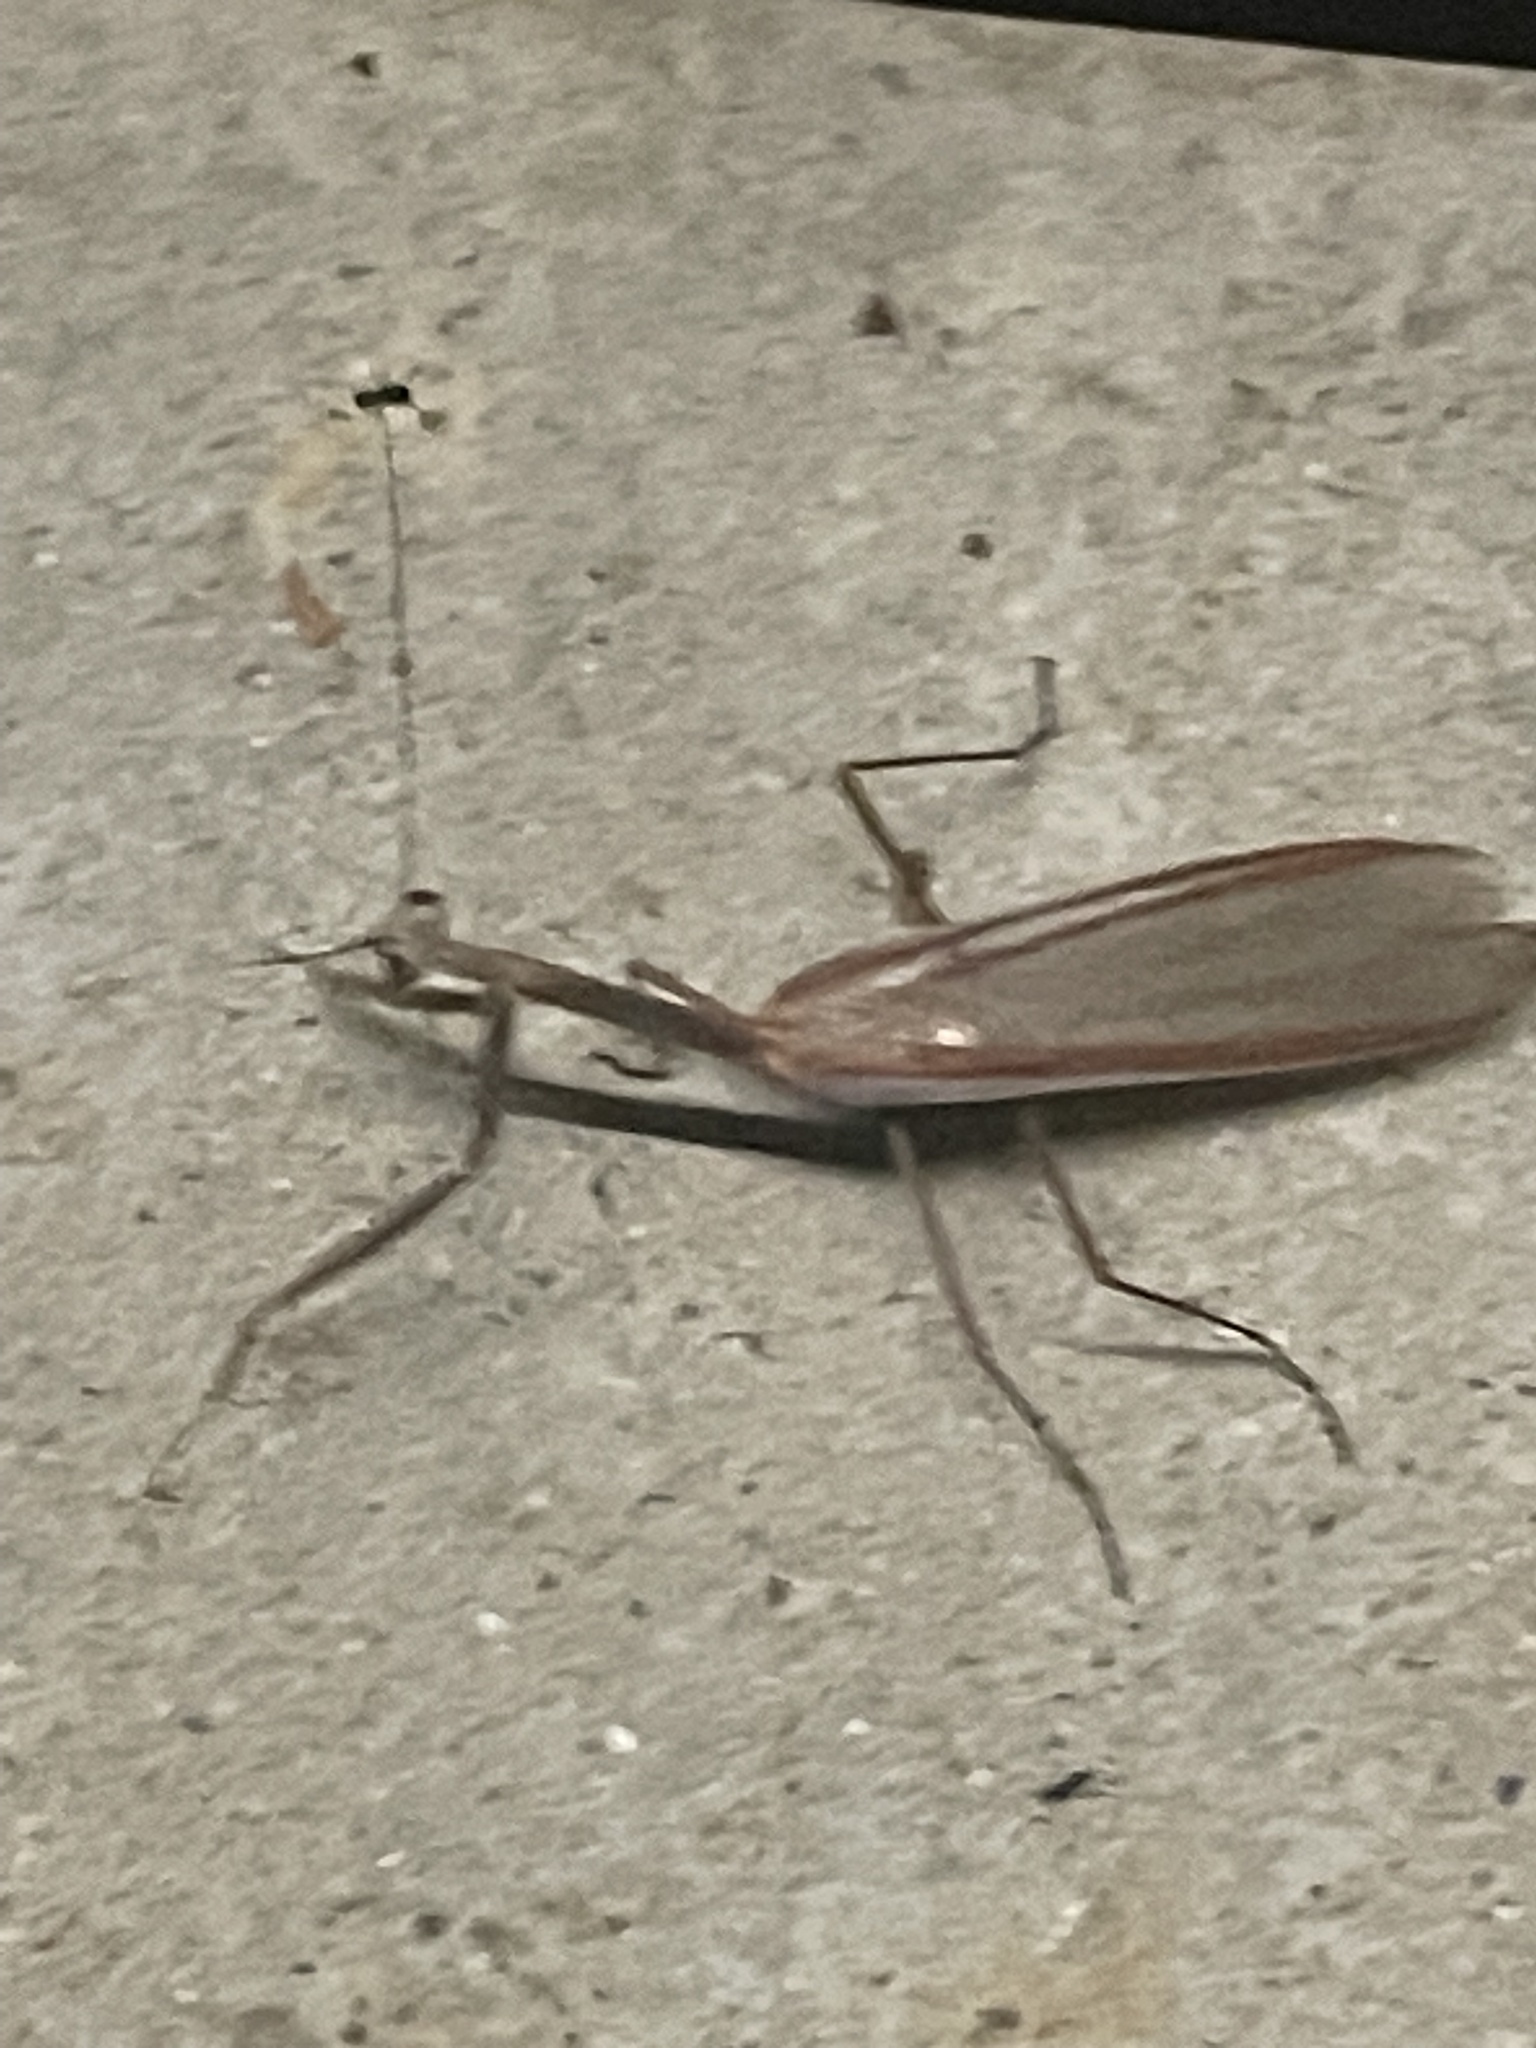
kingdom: Animalia
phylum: Arthropoda
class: Insecta
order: Mantodea
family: Mantidae
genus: Archimantis
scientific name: Archimantis latistyla
